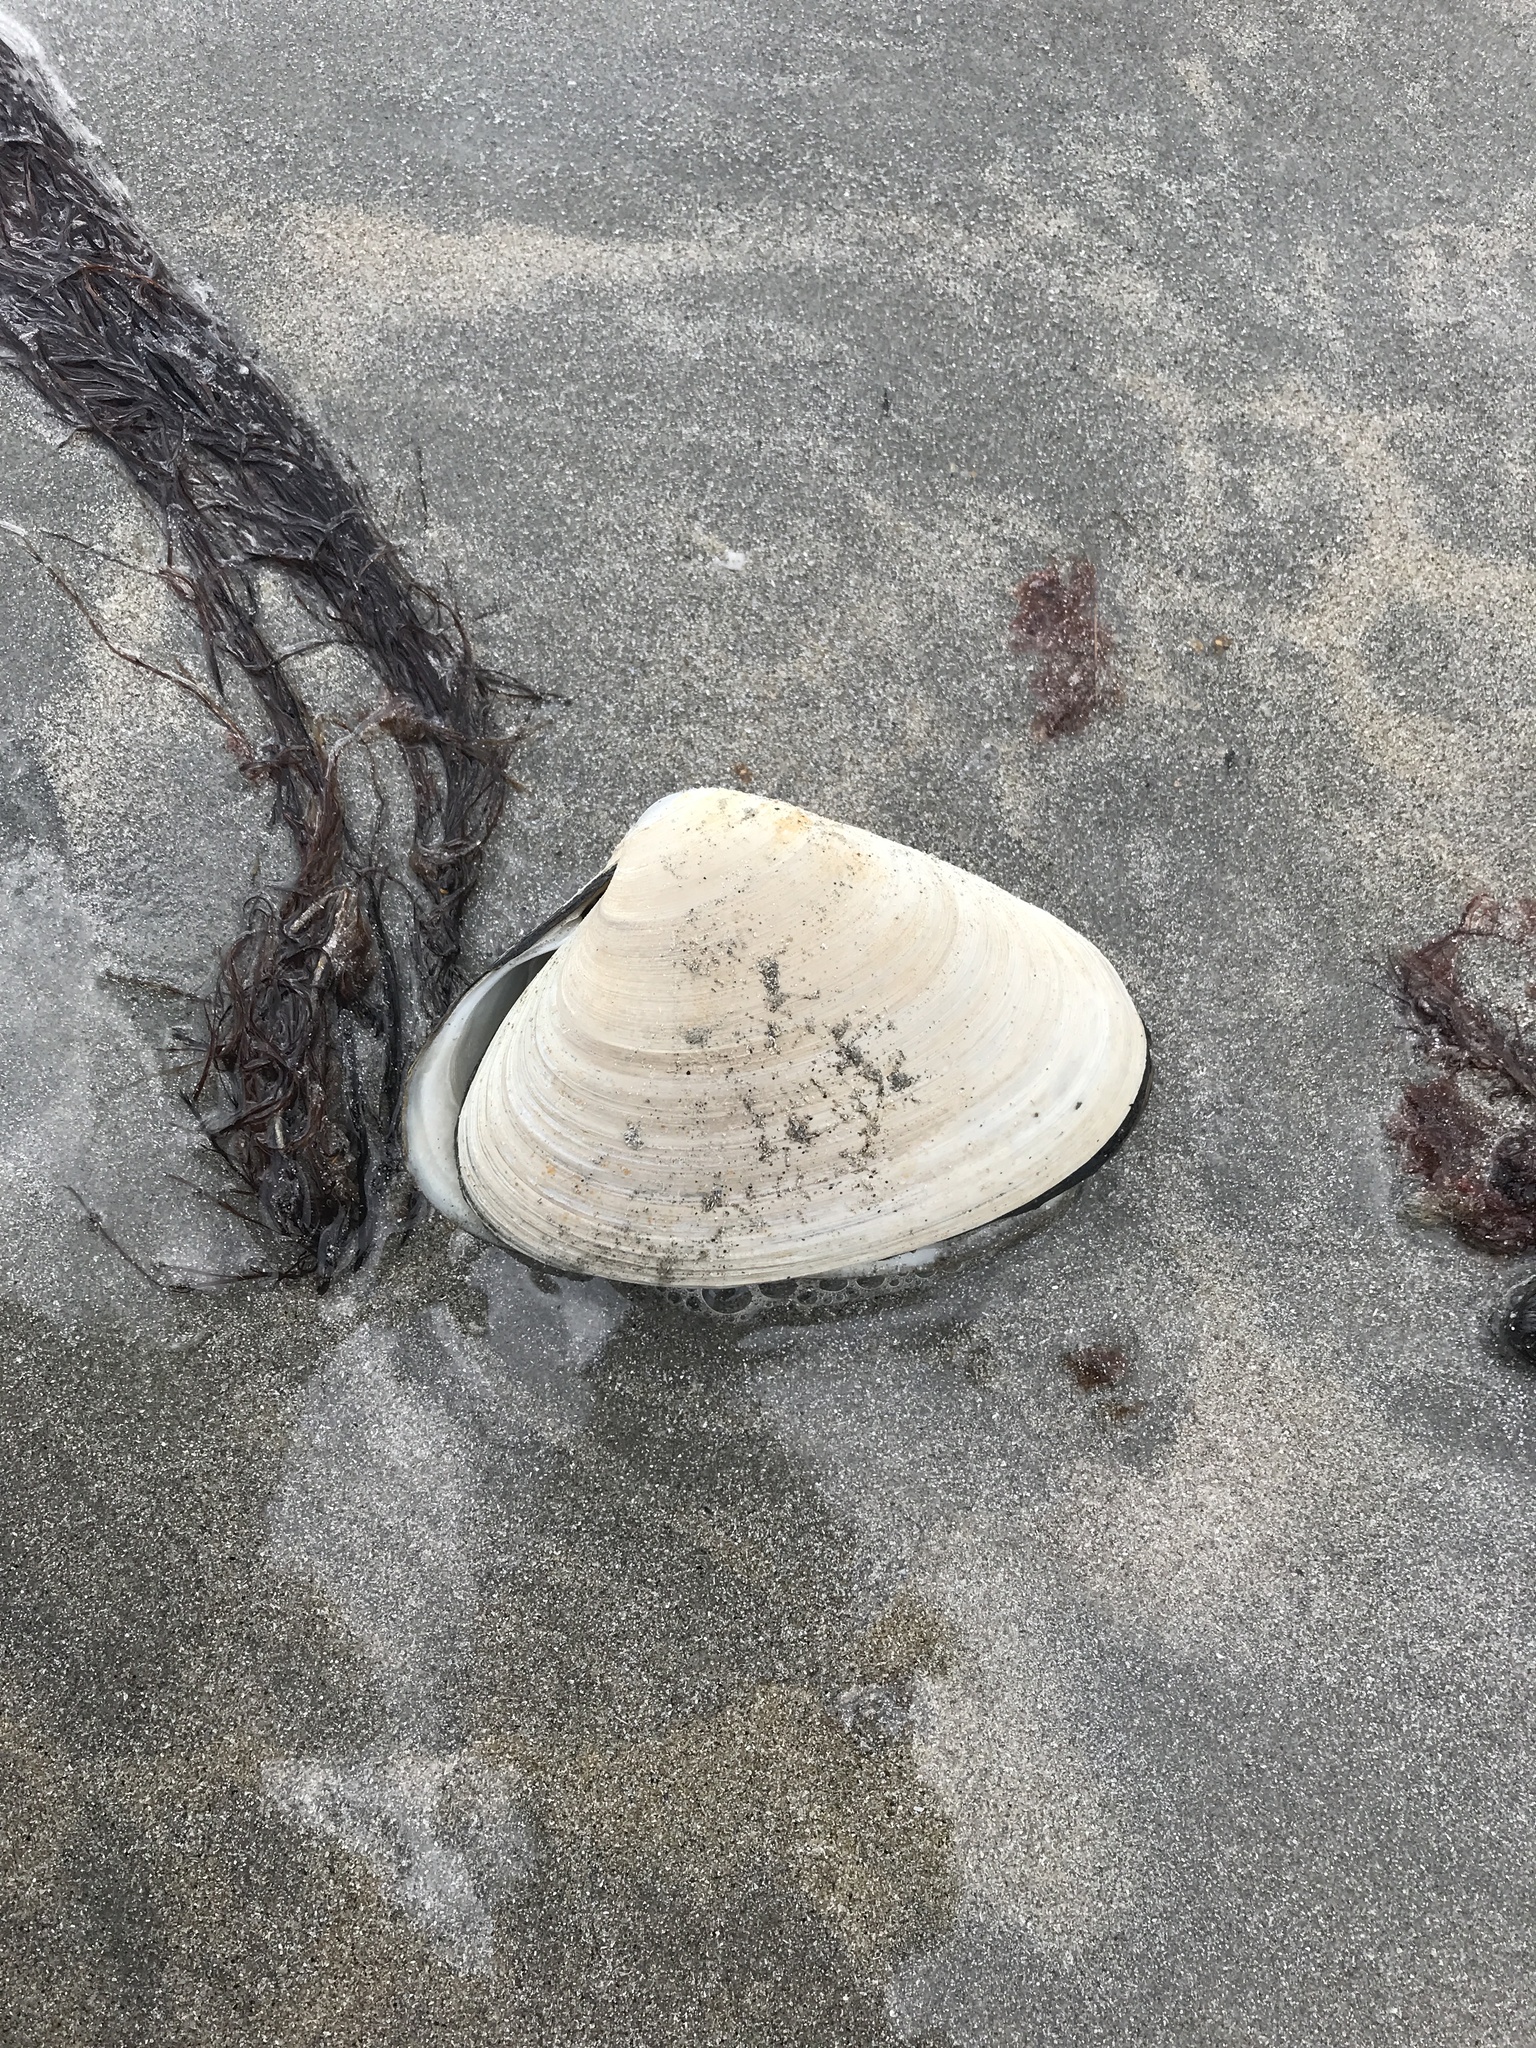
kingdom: Animalia
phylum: Mollusca
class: Bivalvia
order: Venerida
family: Mactridae
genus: Spisula
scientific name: Spisula solidissima
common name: Atlantic surf clam
